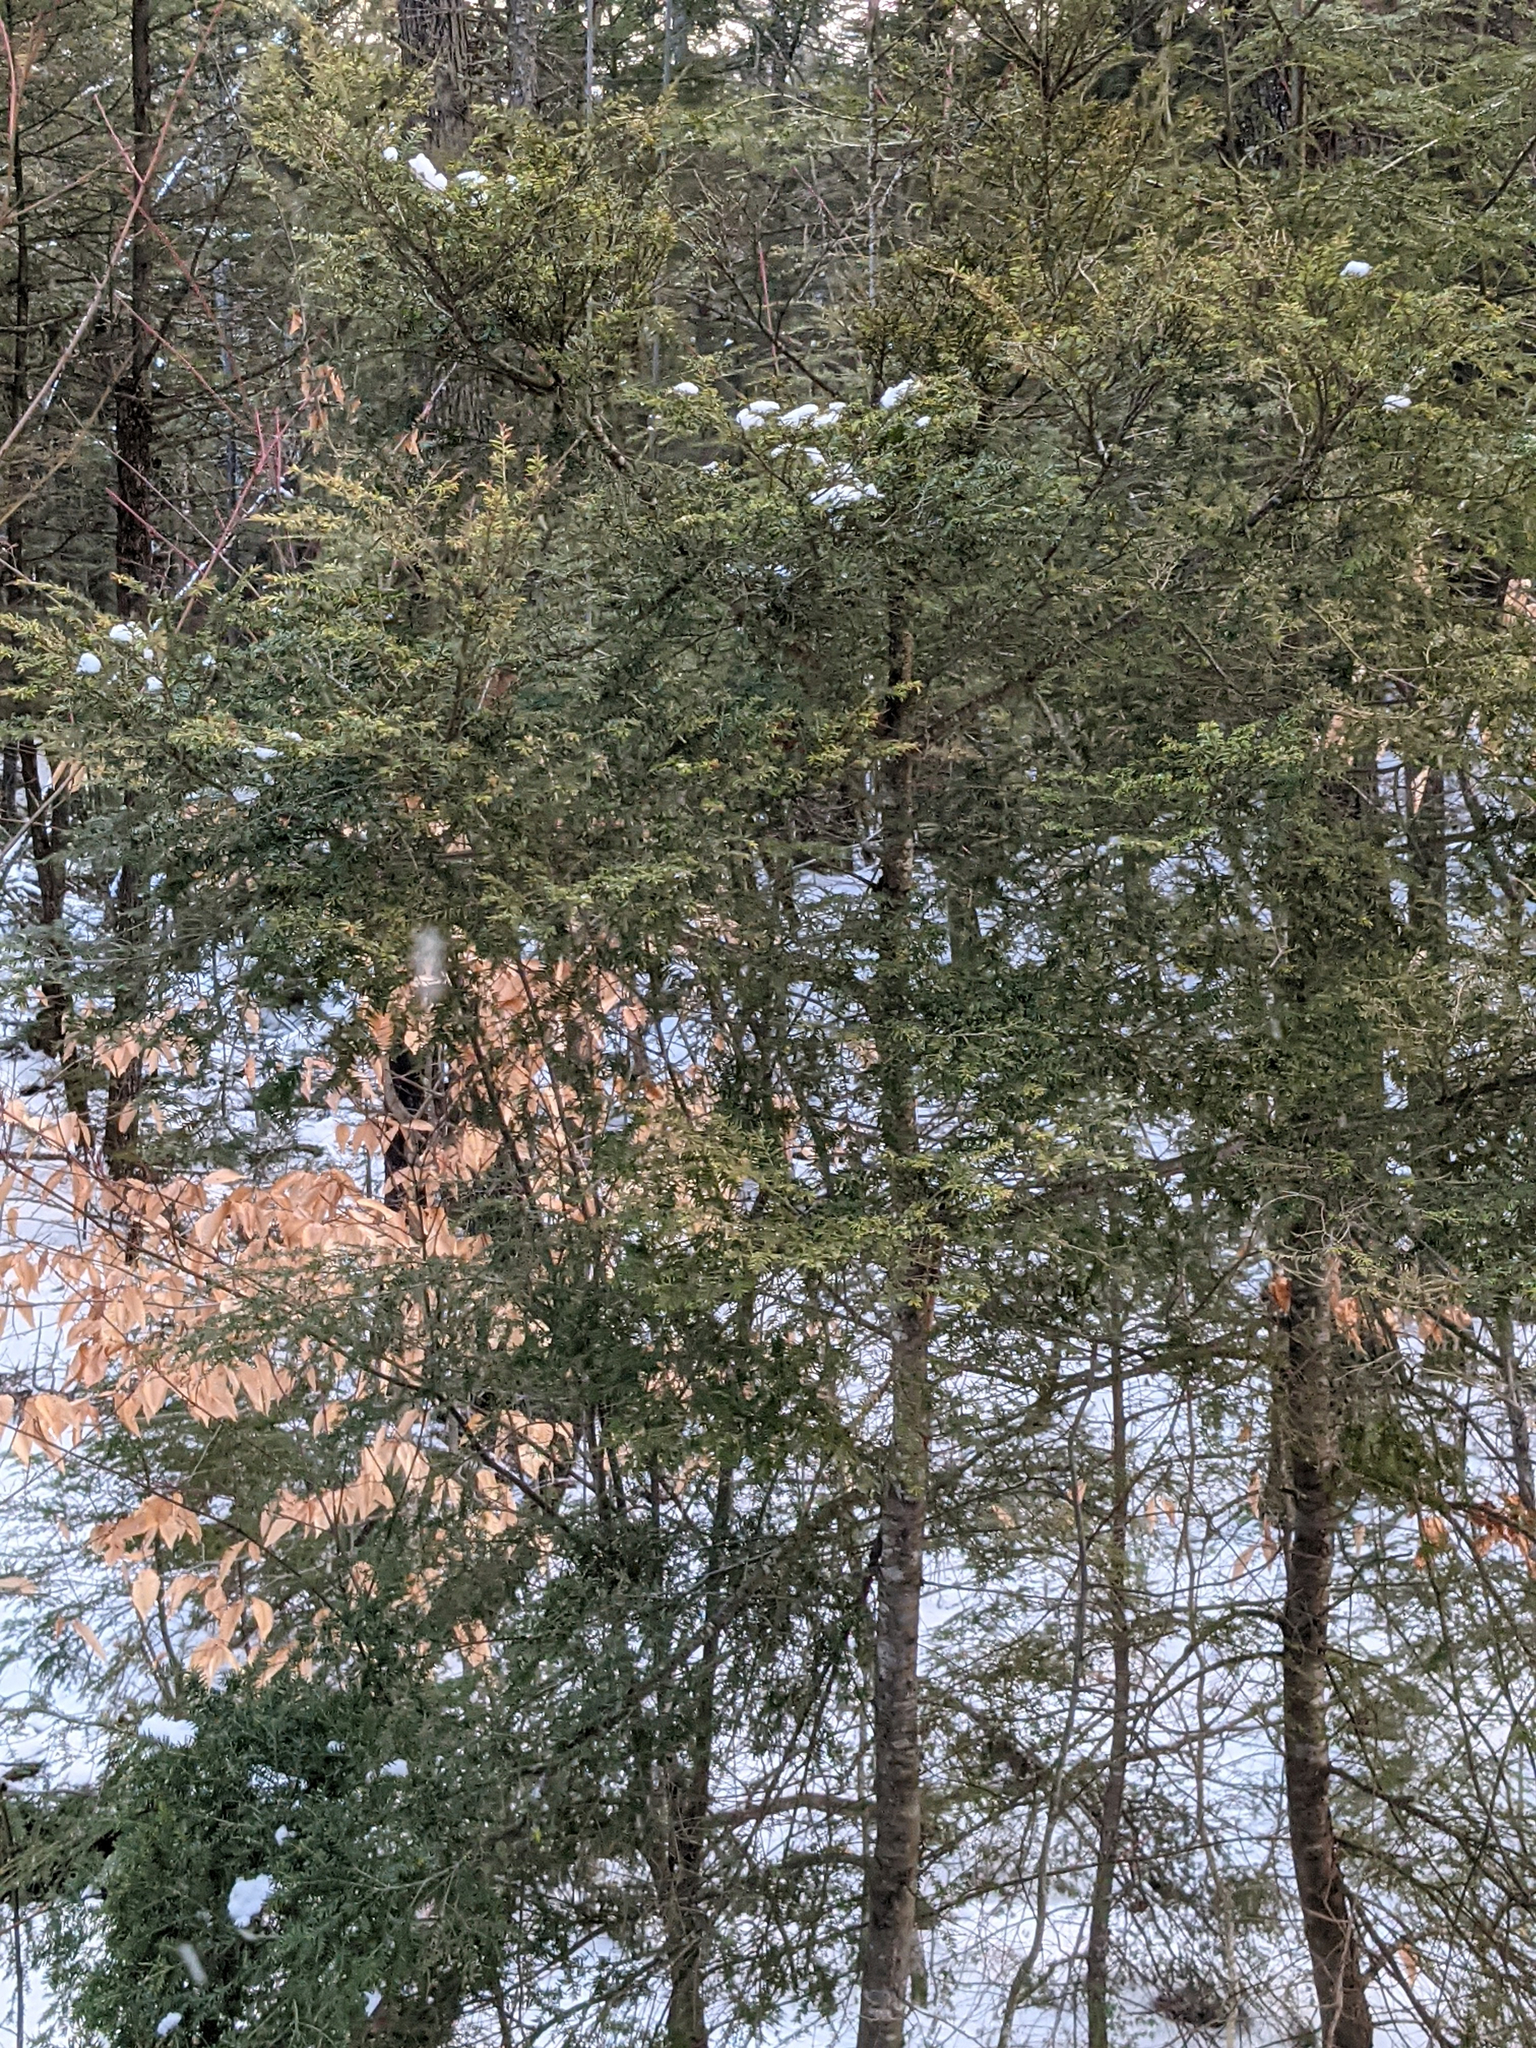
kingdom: Plantae
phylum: Tracheophyta
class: Pinopsida
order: Pinales
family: Pinaceae
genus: Tsuga
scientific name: Tsuga canadensis
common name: Eastern hemlock
